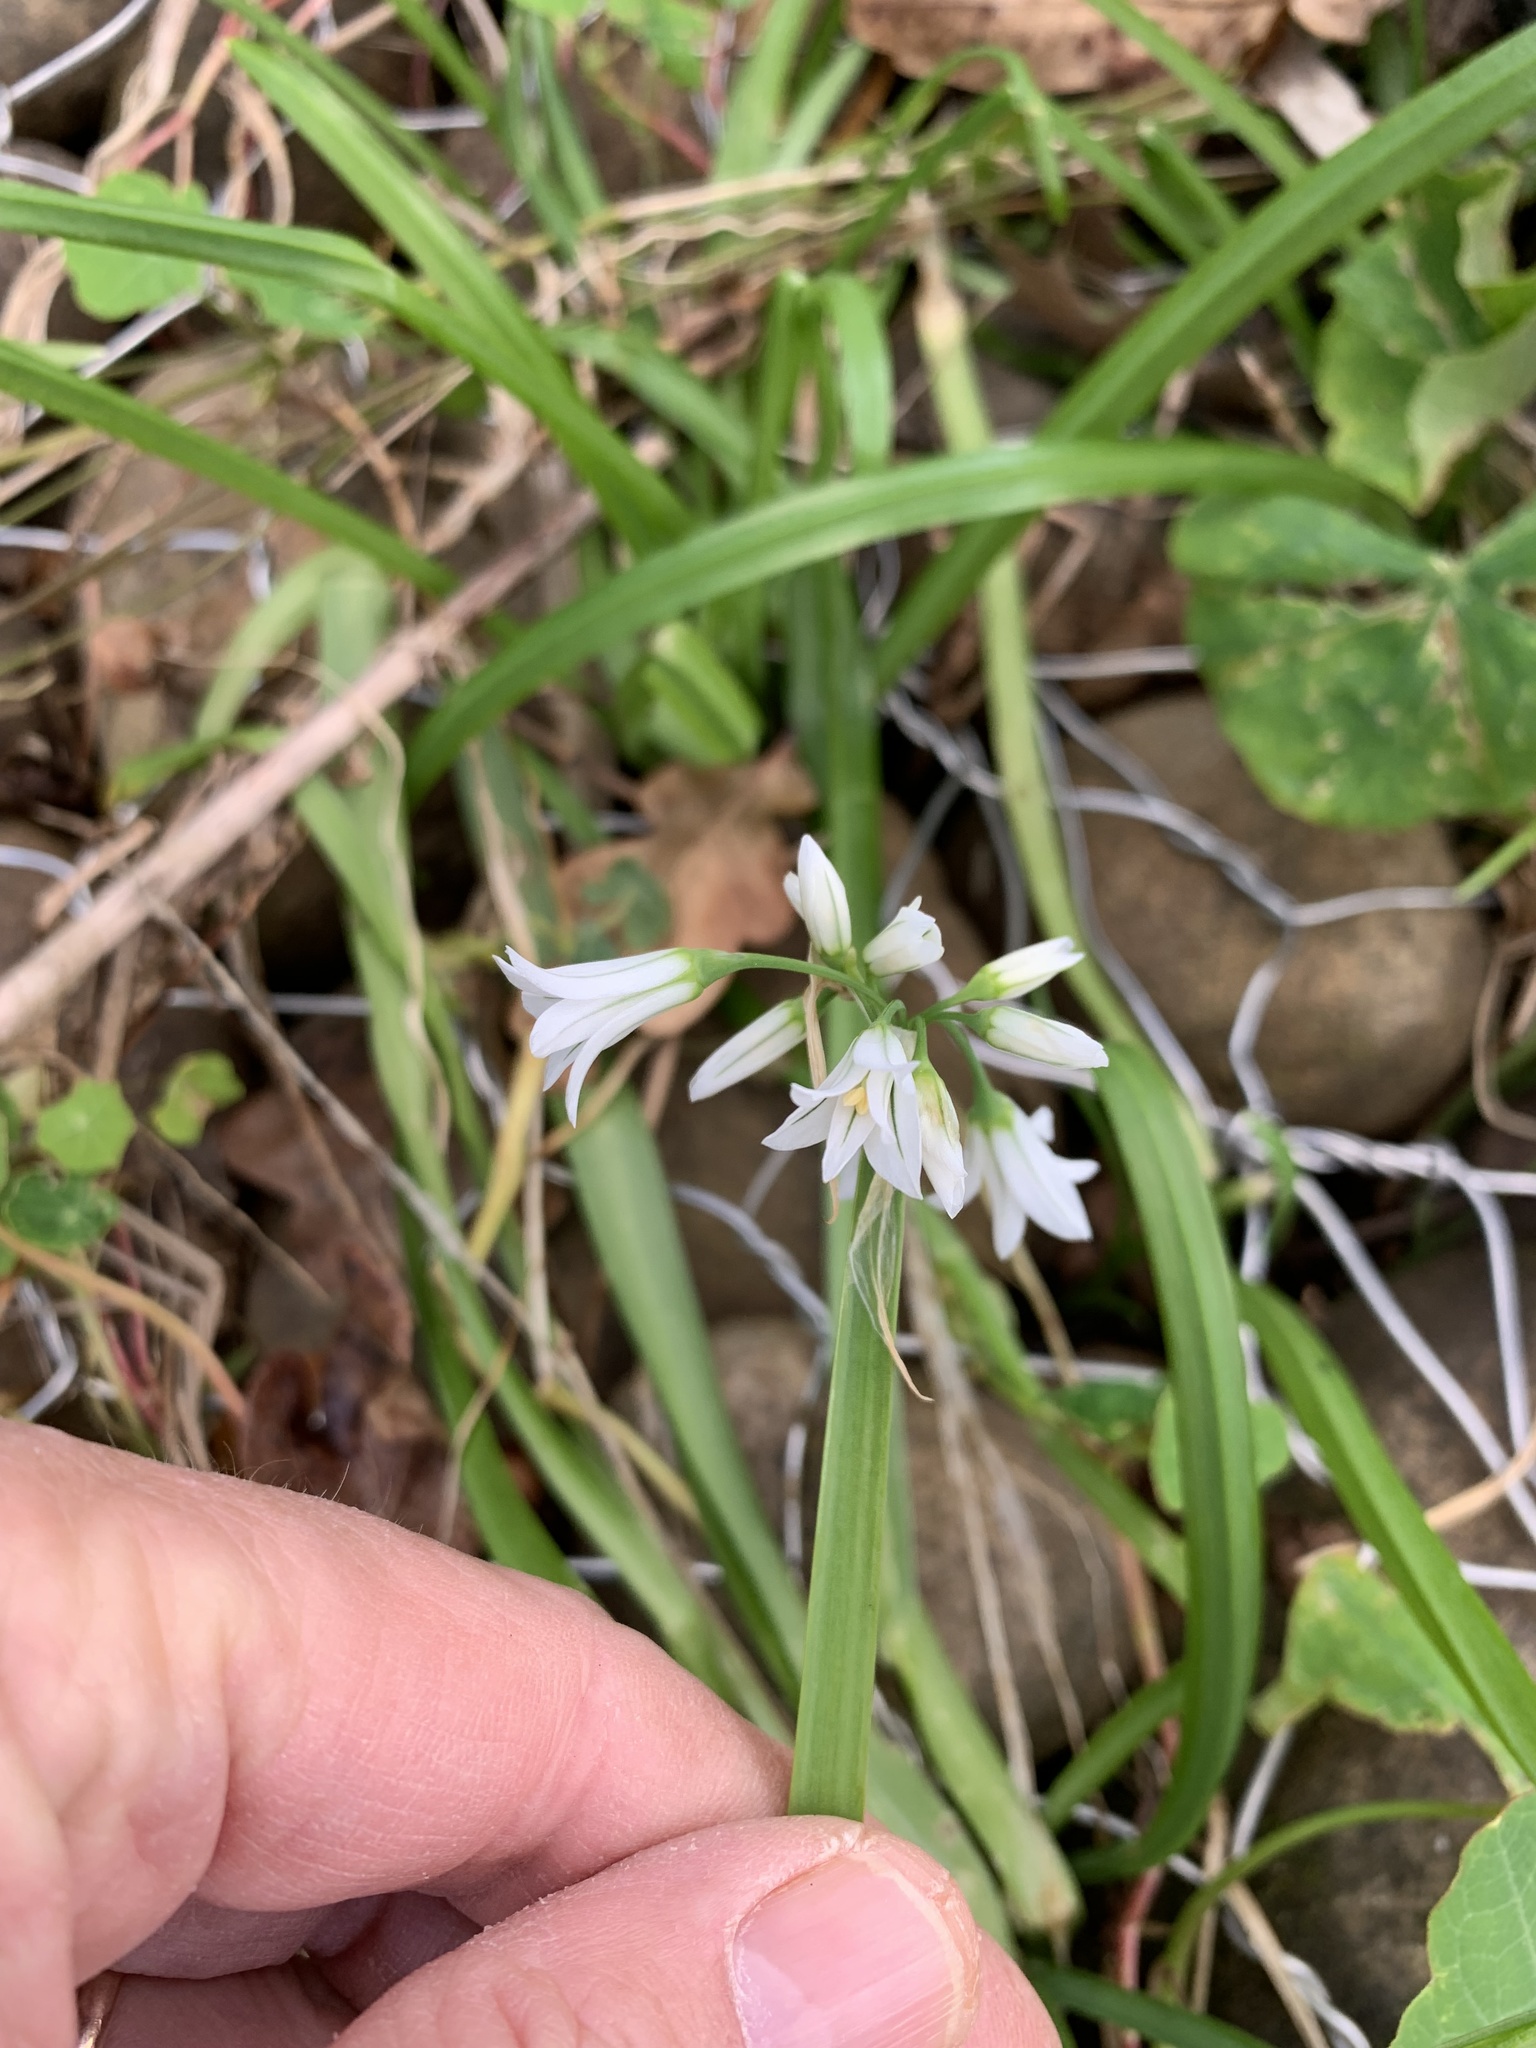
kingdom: Plantae
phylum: Tracheophyta
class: Liliopsida
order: Asparagales
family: Amaryllidaceae
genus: Allium
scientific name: Allium triquetrum
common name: Three-cornered garlic
